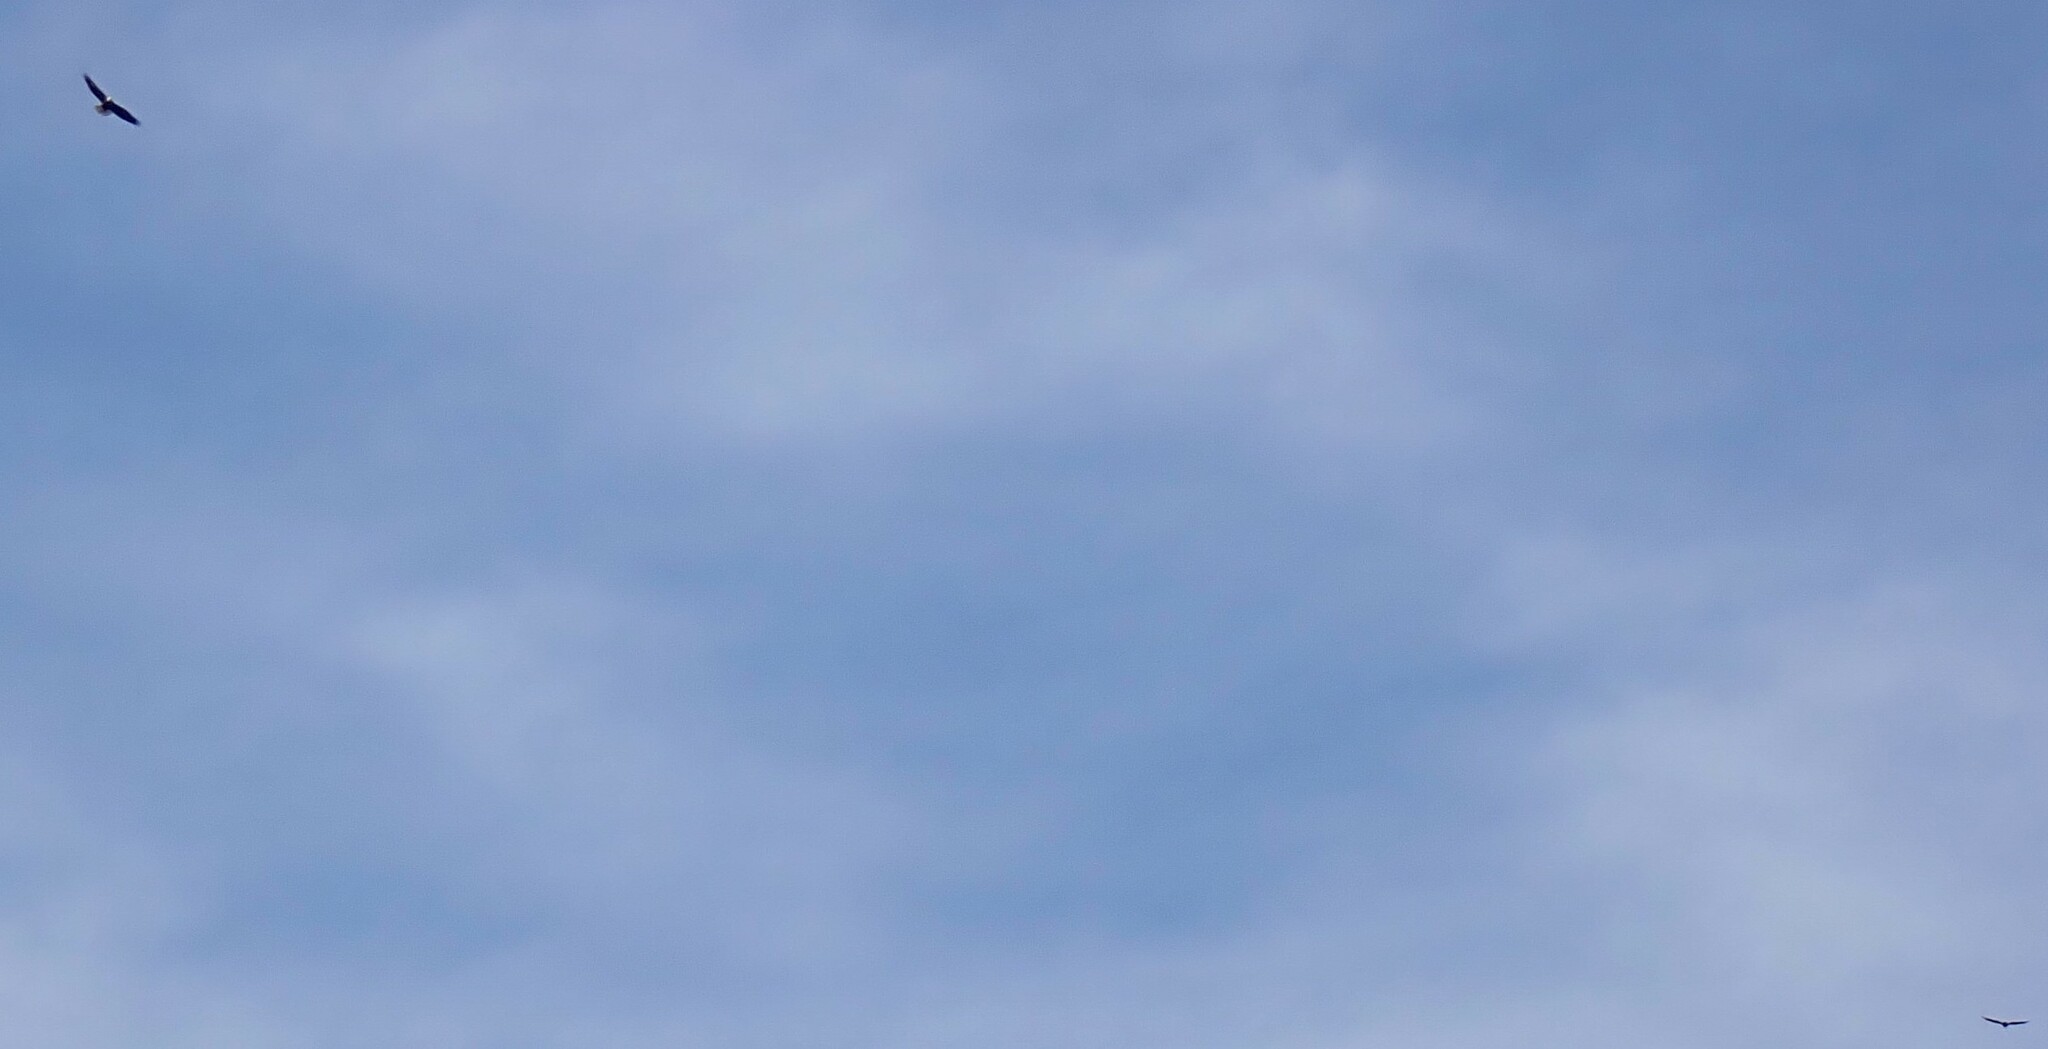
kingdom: Animalia
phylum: Chordata
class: Aves
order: Accipitriformes
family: Accipitridae
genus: Haliaeetus
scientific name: Haliaeetus leucocephalus
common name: Bald eagle
